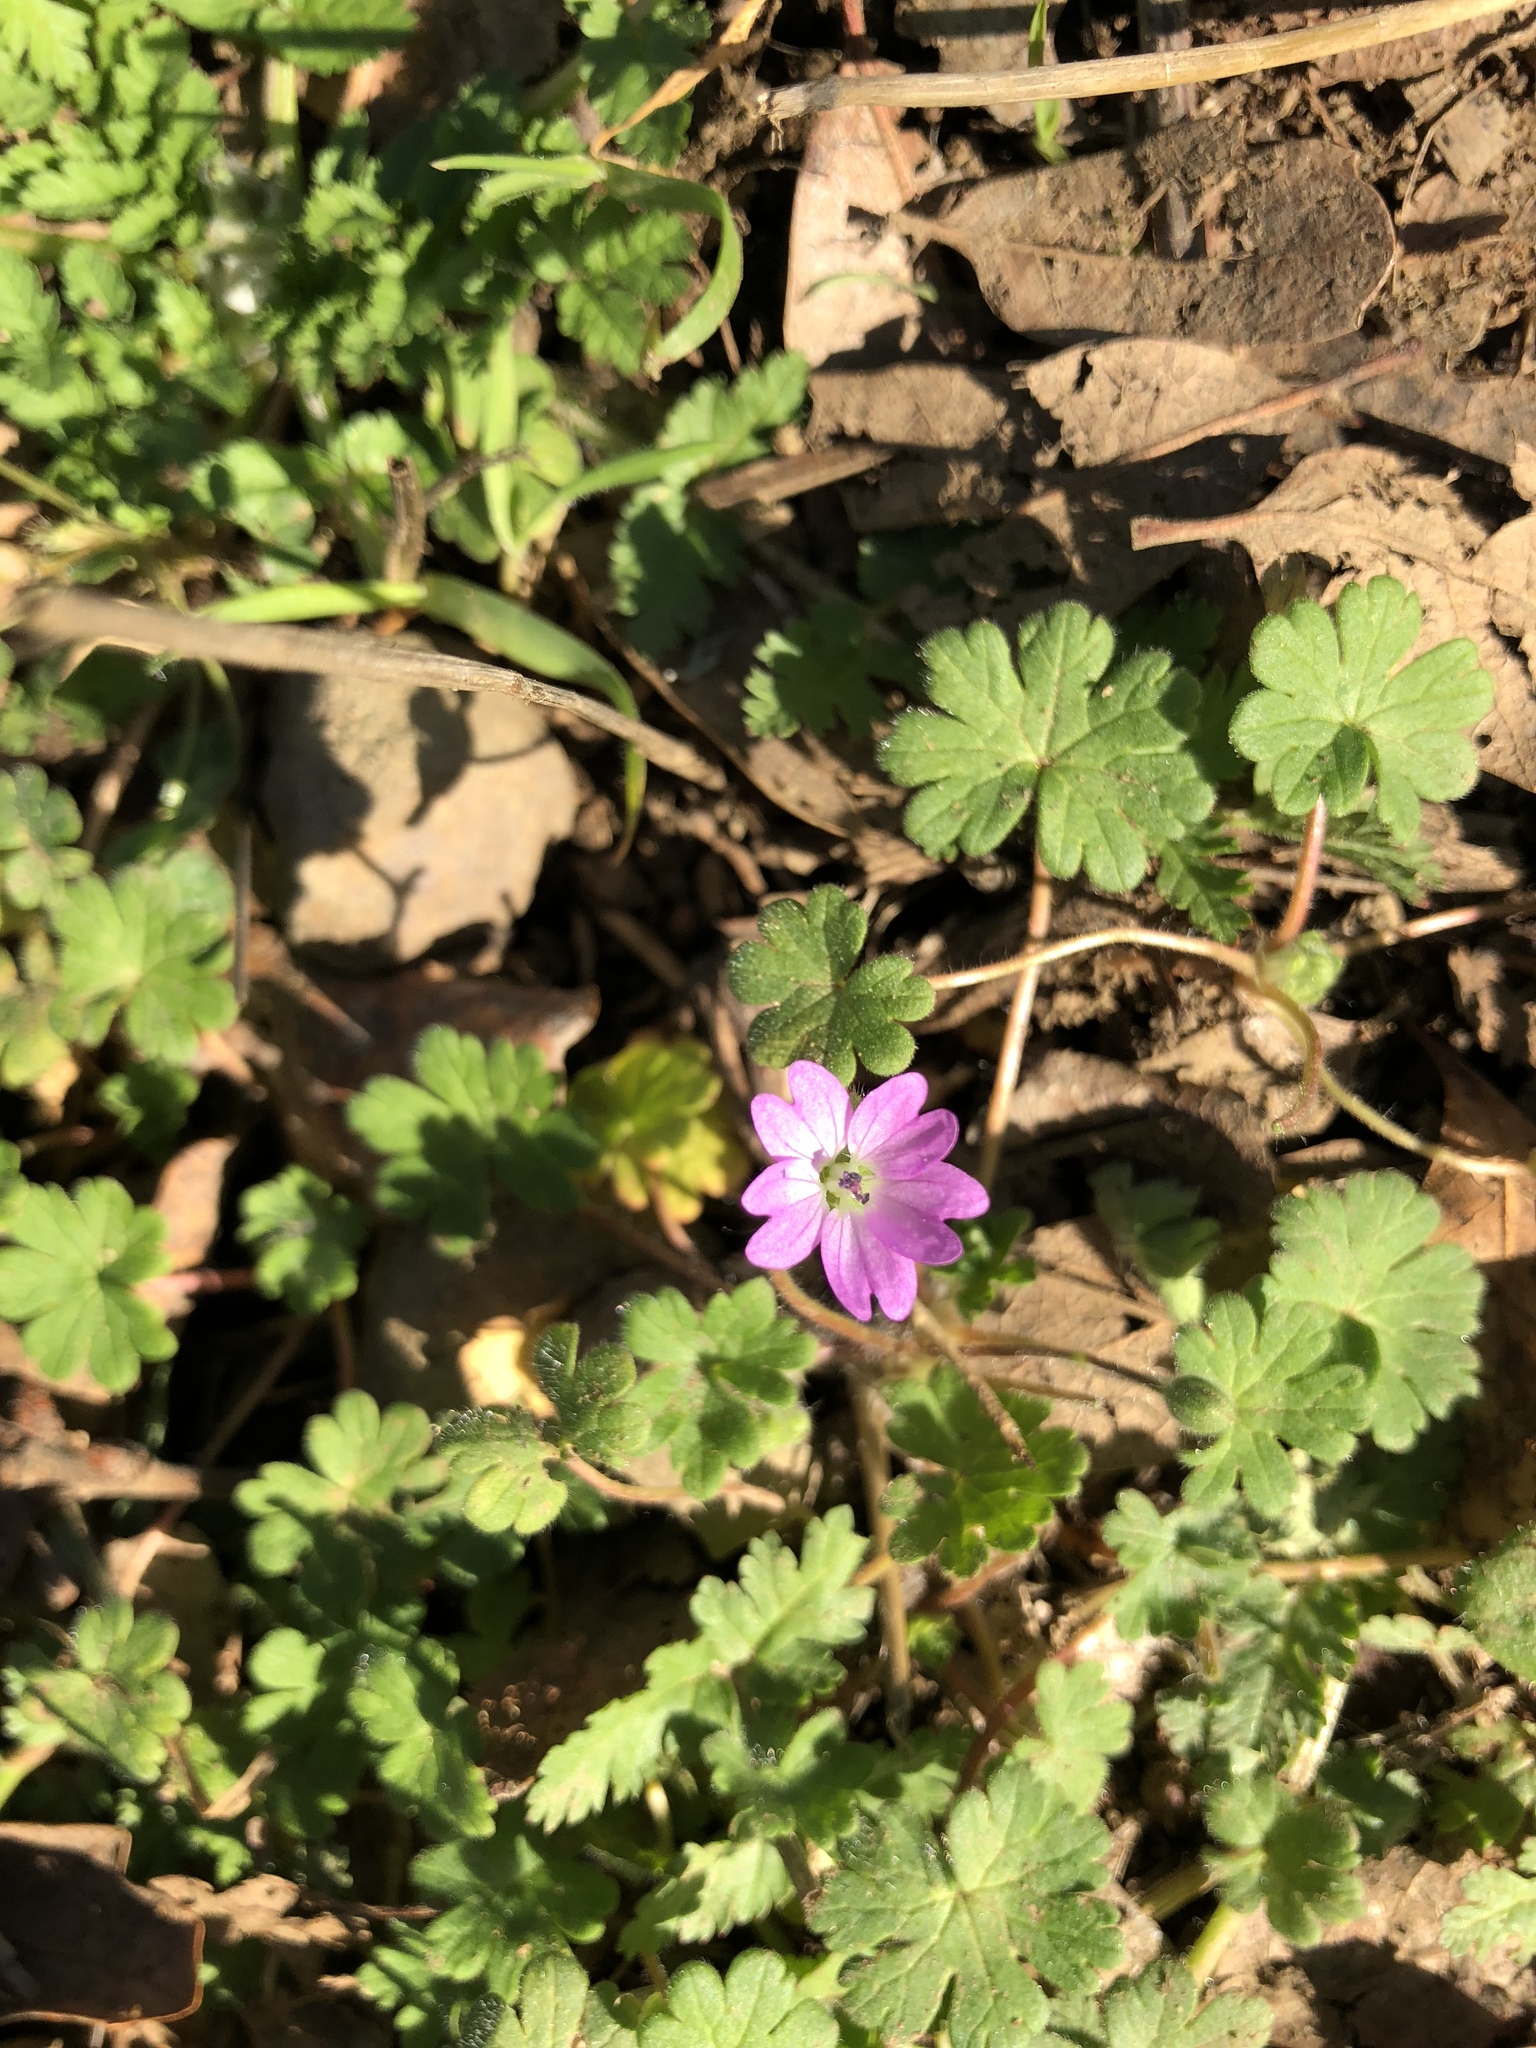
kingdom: Plantae
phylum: Tracheophyta
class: Magnoliopsida
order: Geraniales
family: Geraniaceae
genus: Geranium
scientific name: Geranium molle
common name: Dove's-foot crane's-bill
